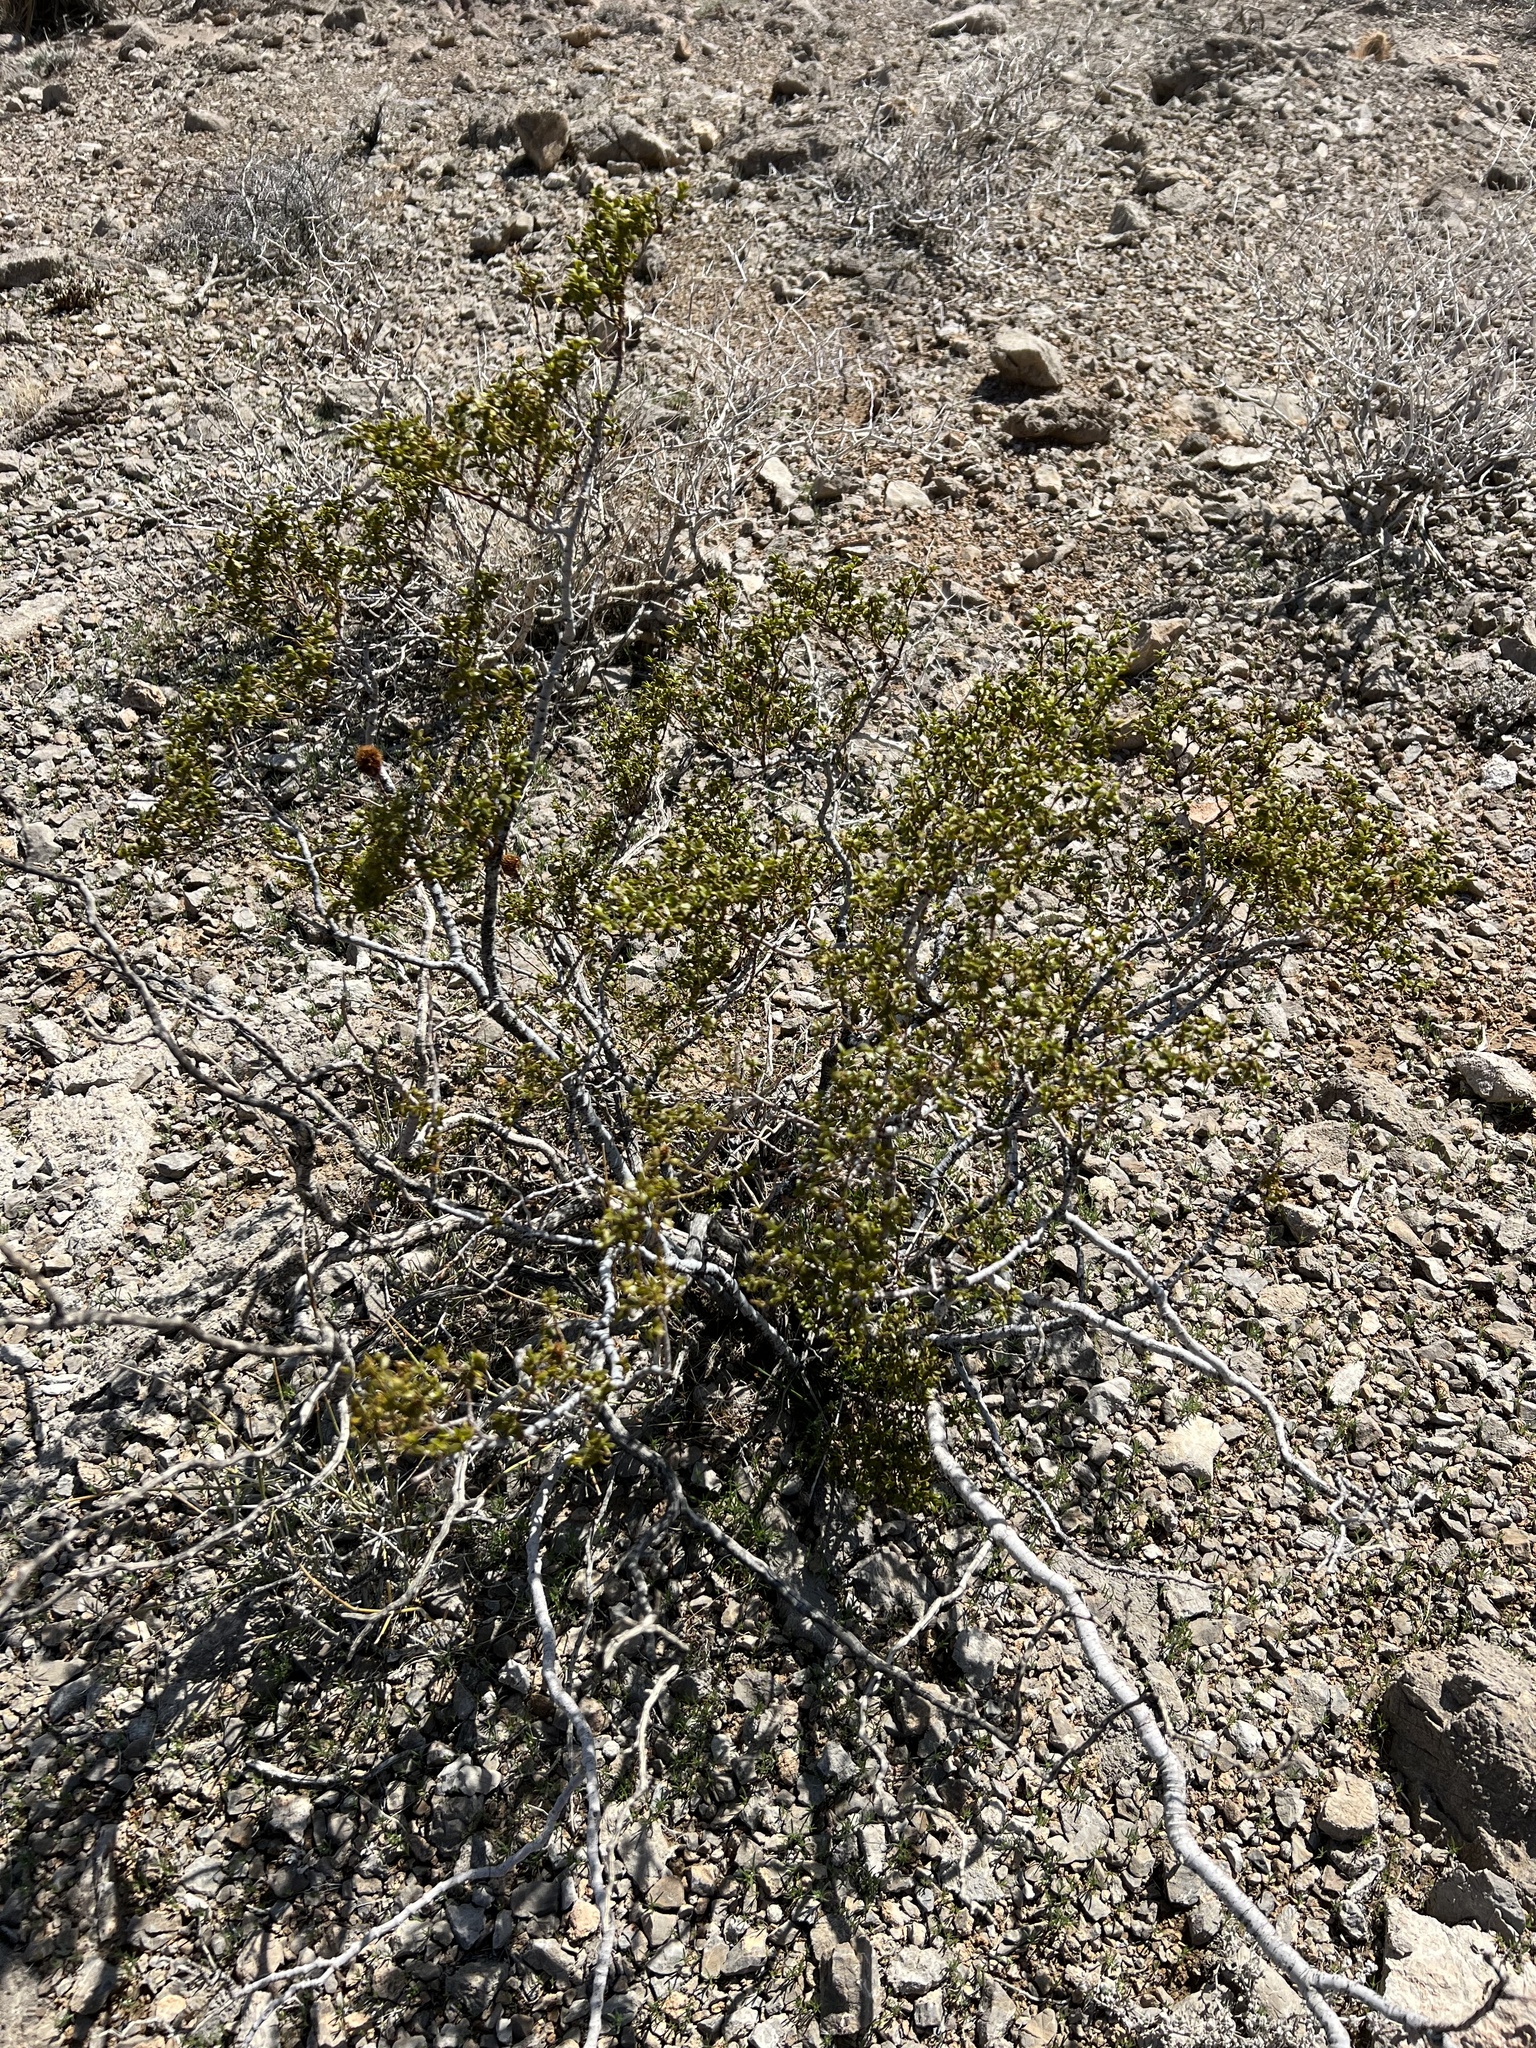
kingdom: Plantae
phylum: Tracheophyta
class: Magnoliopsida
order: Zygophyllales
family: Zygophyllaceae
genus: Larrea
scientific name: Larrea tridentata
